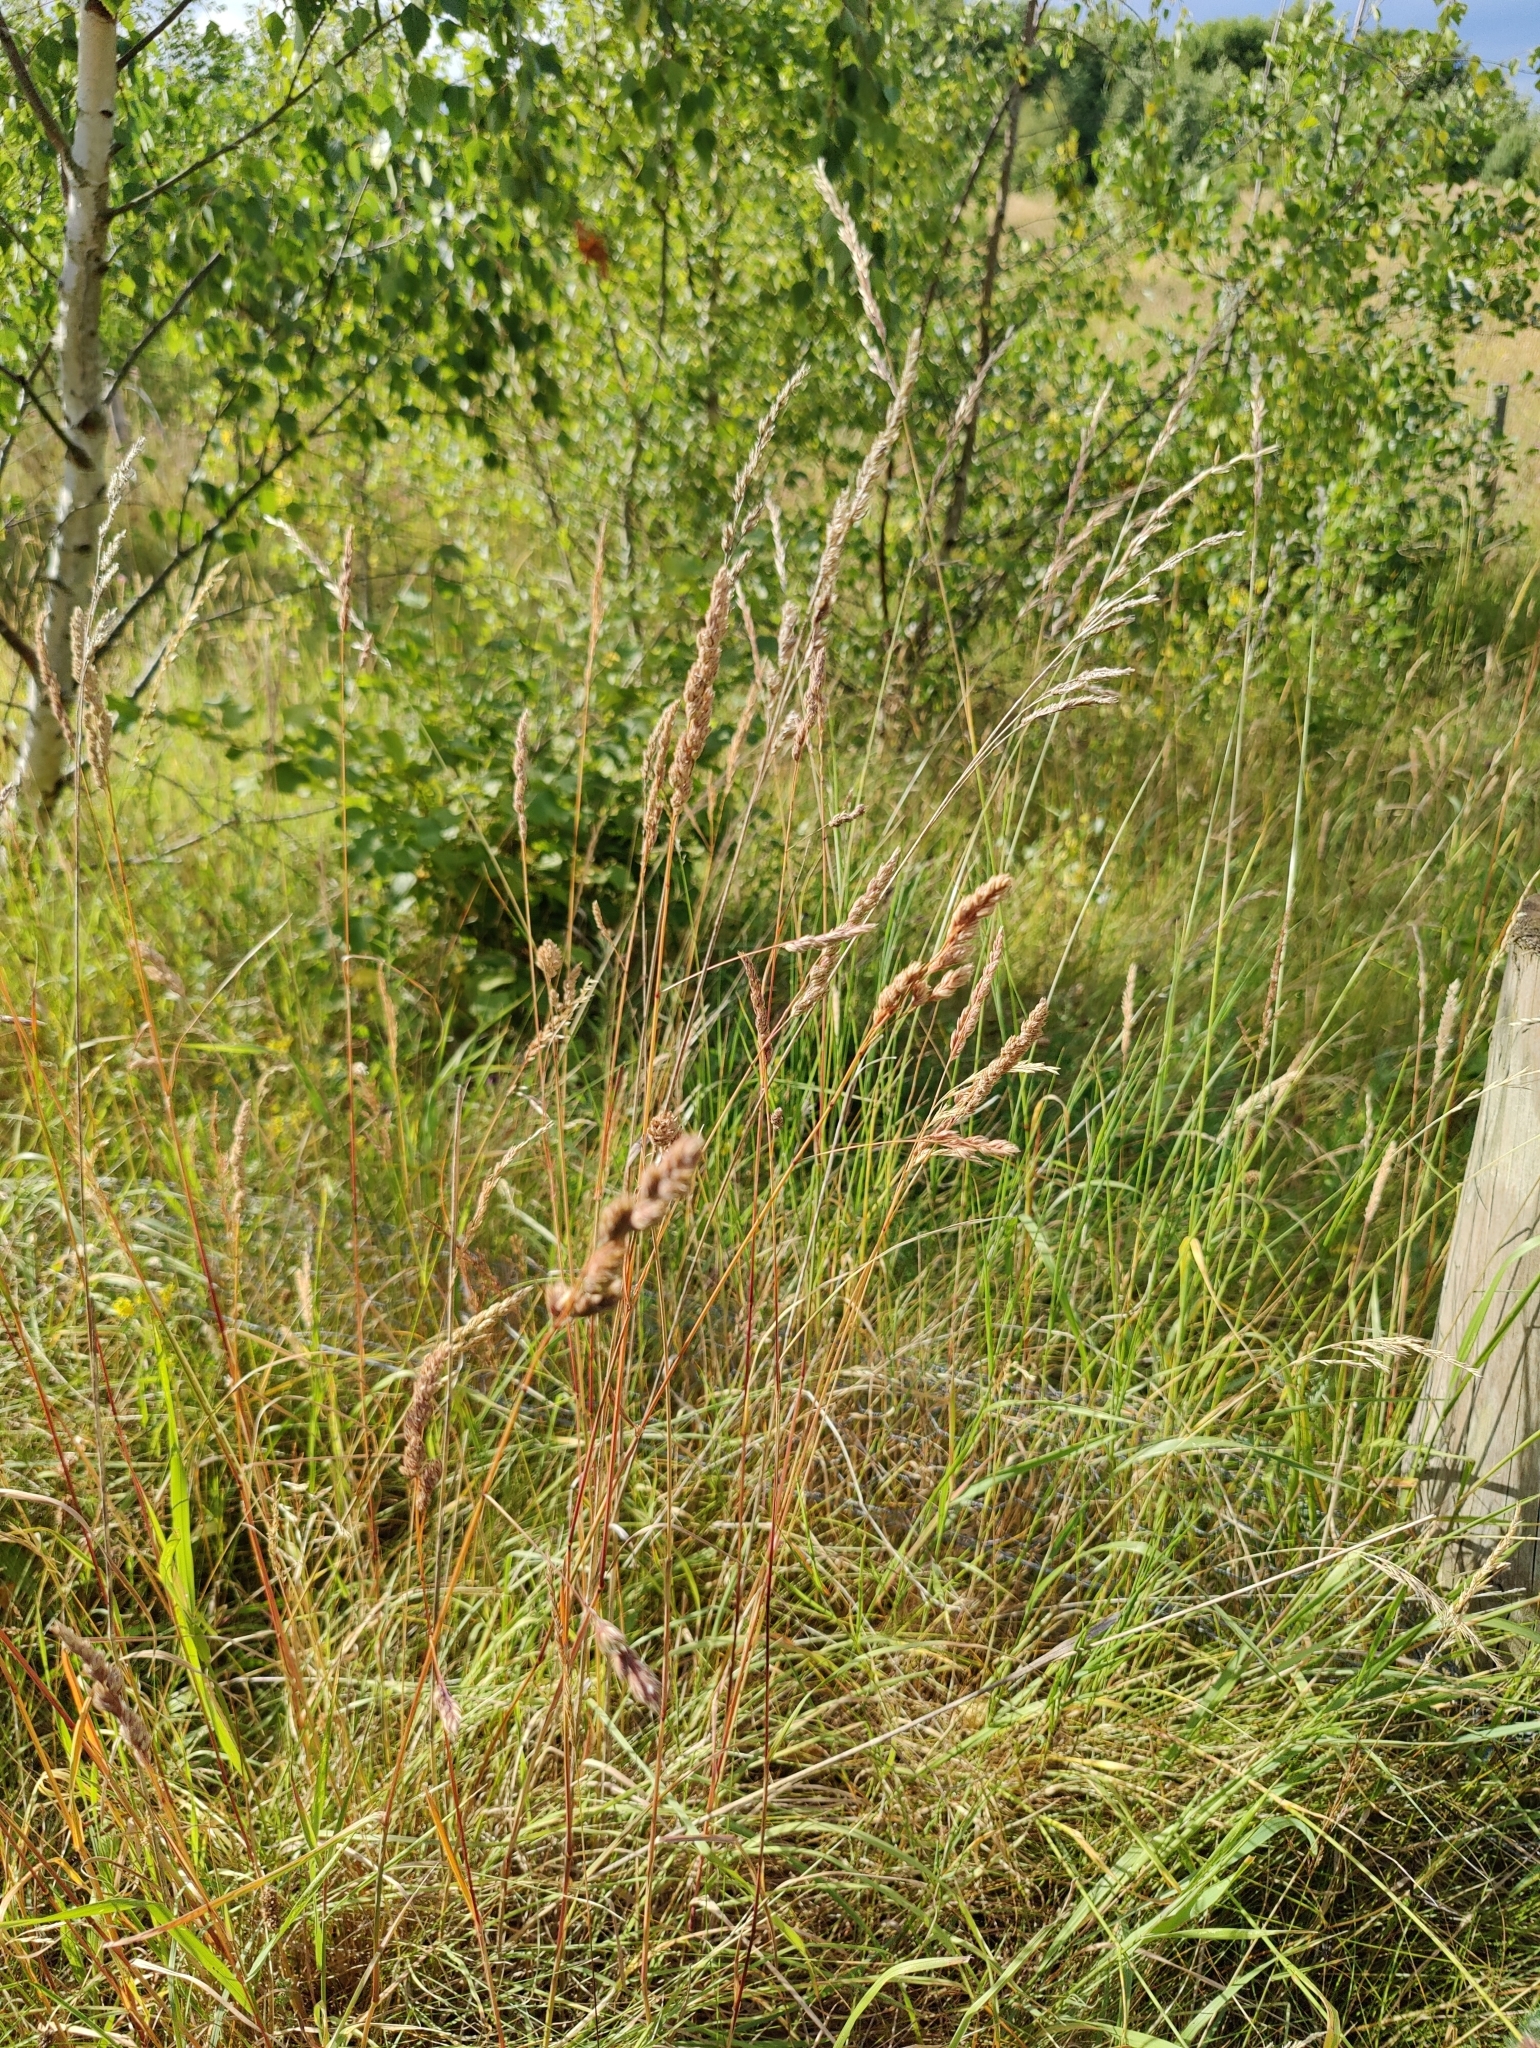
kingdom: Plantae
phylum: Tracheophyta
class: Liliopsida
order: Poales
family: Poaceae
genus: Dactylis
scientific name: Dactylis glomerata
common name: Orchardgrass
